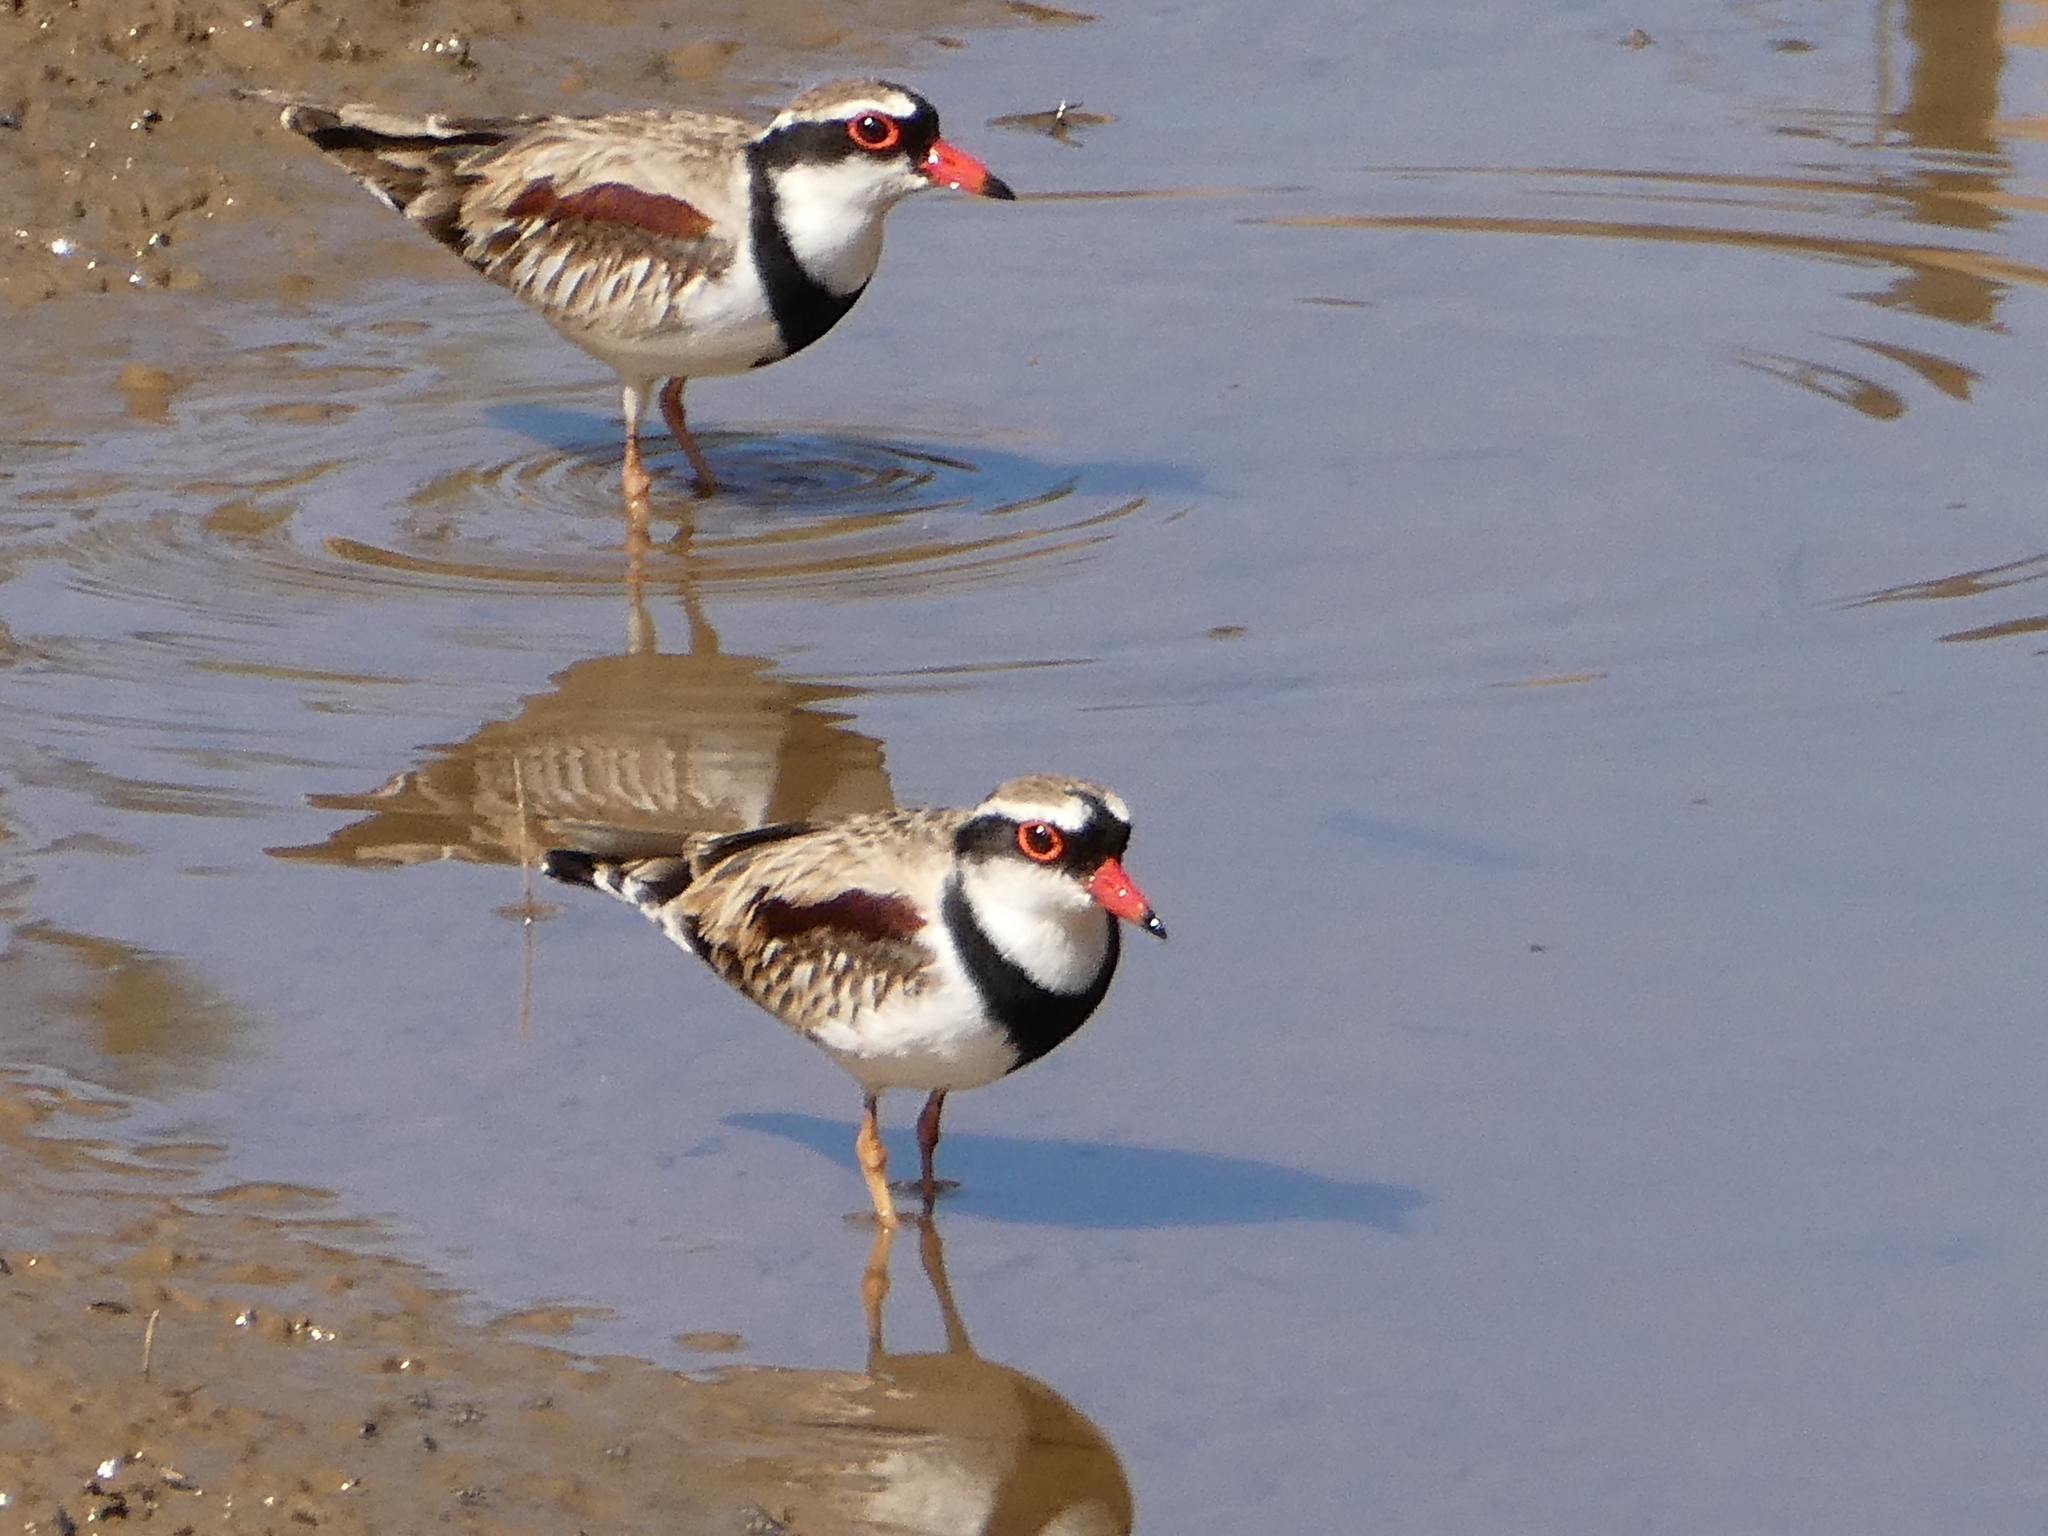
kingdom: Animalia
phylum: Chordata
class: Aves
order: Charadriiformes
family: Charadriidae
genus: Elseyornis
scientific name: Elseyornis melanops
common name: Black-fronted dotterel
